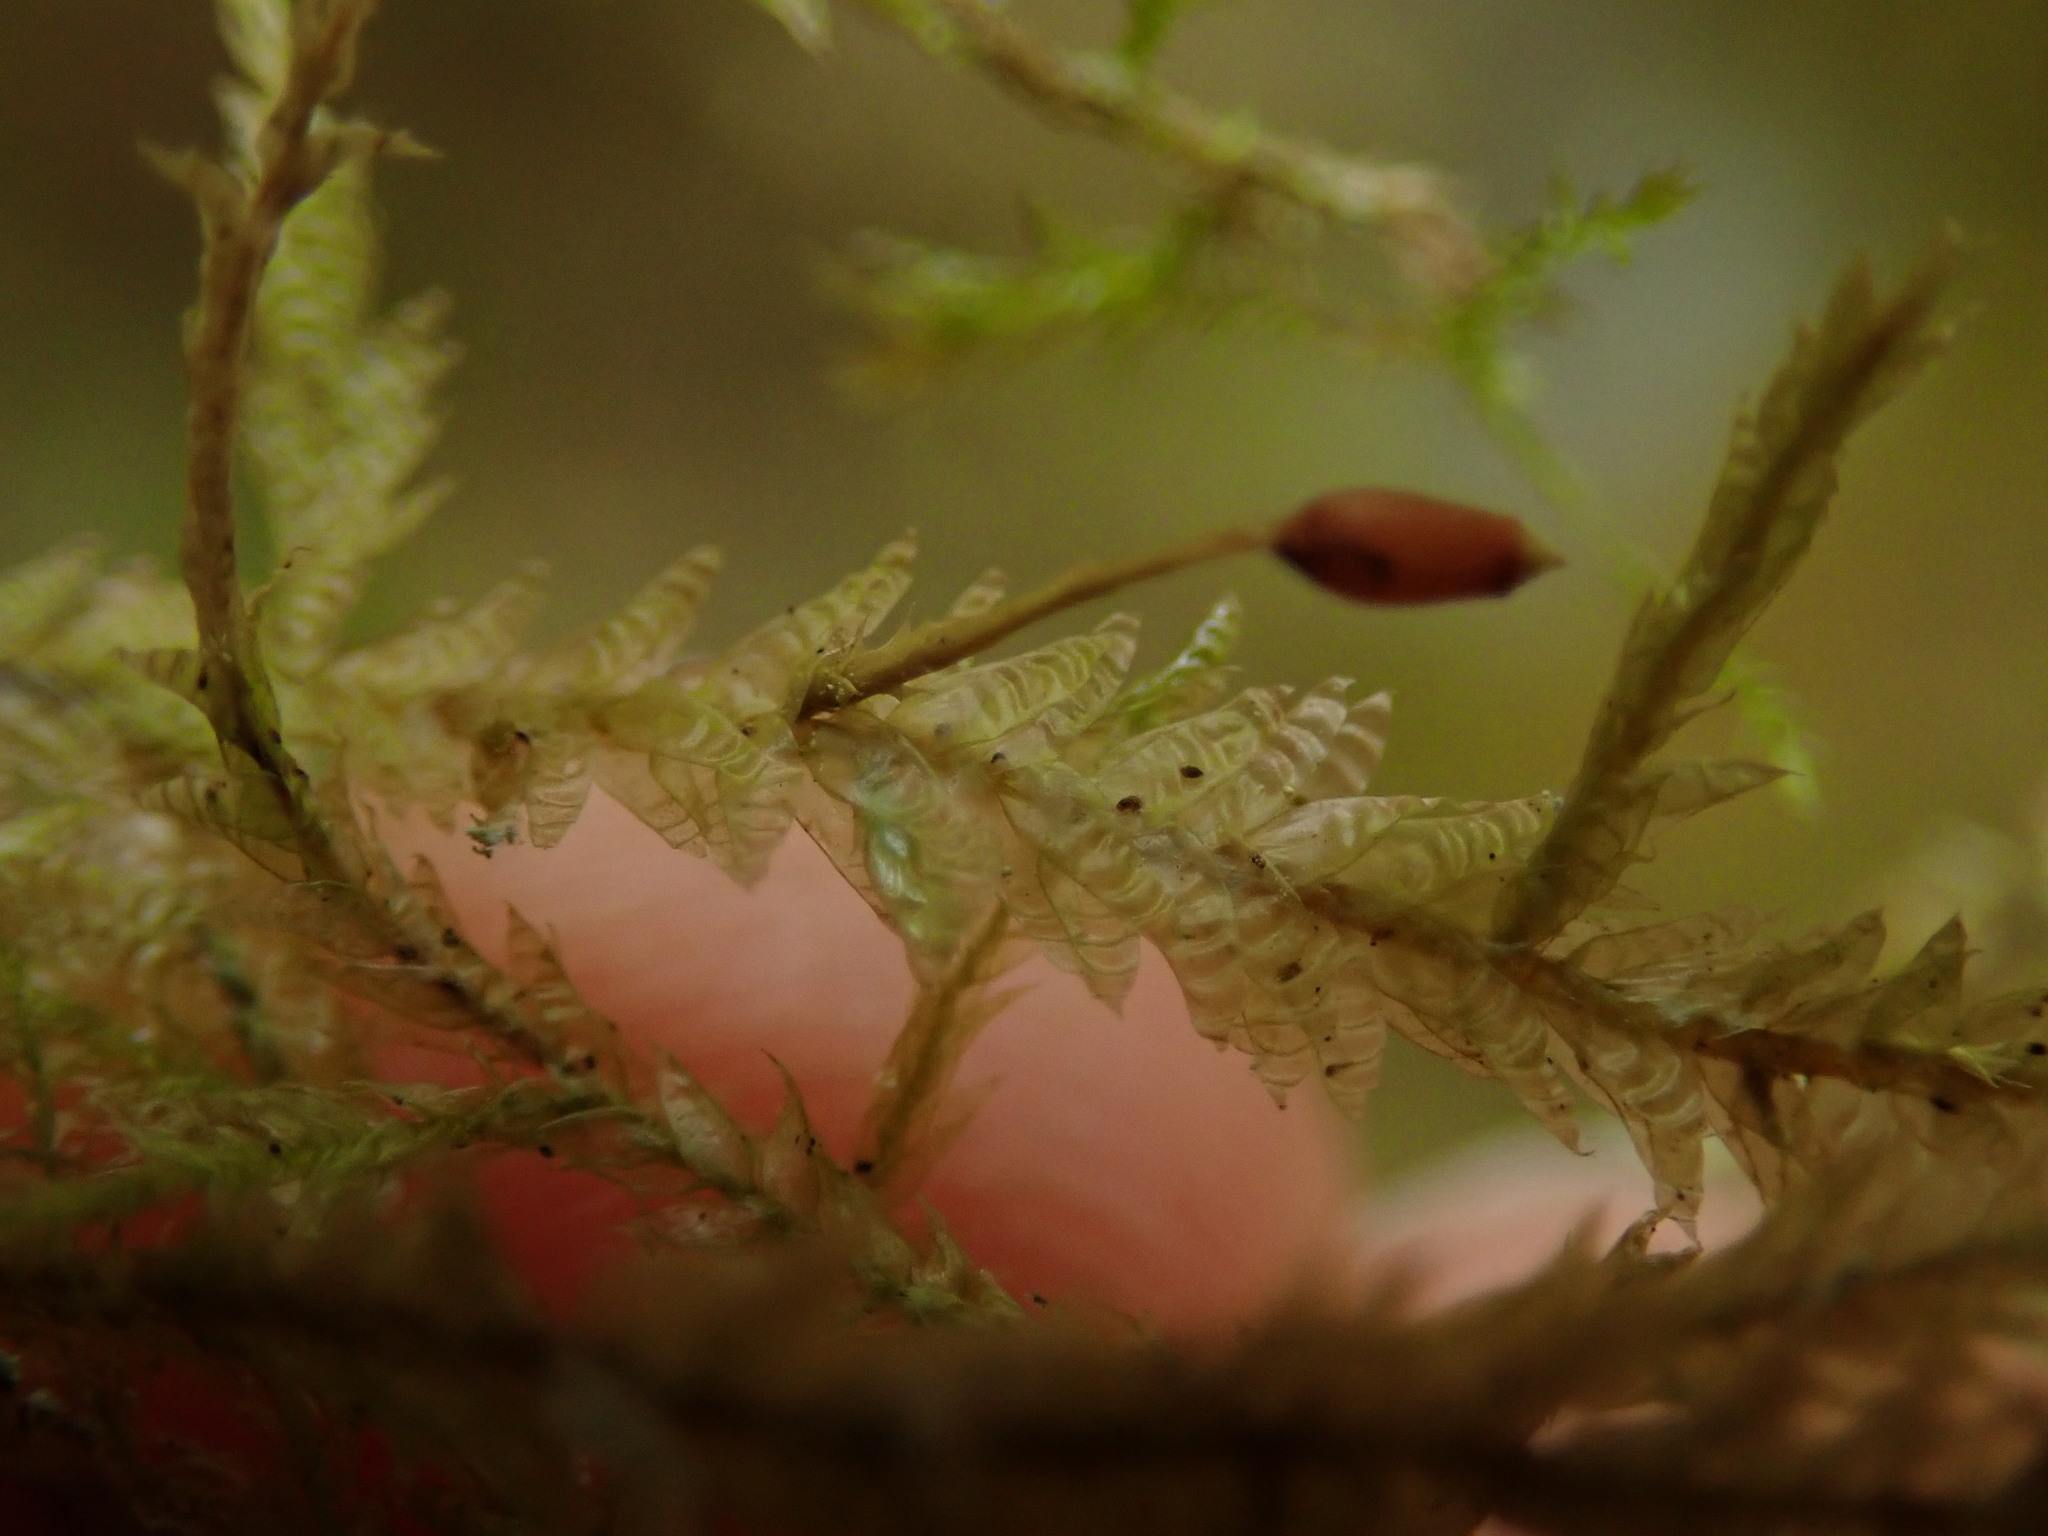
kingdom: Plantae
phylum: Bryophyta
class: Bryopsida
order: Hypnales
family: Neckeraceae
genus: Neckera
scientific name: Neckera douglasii
